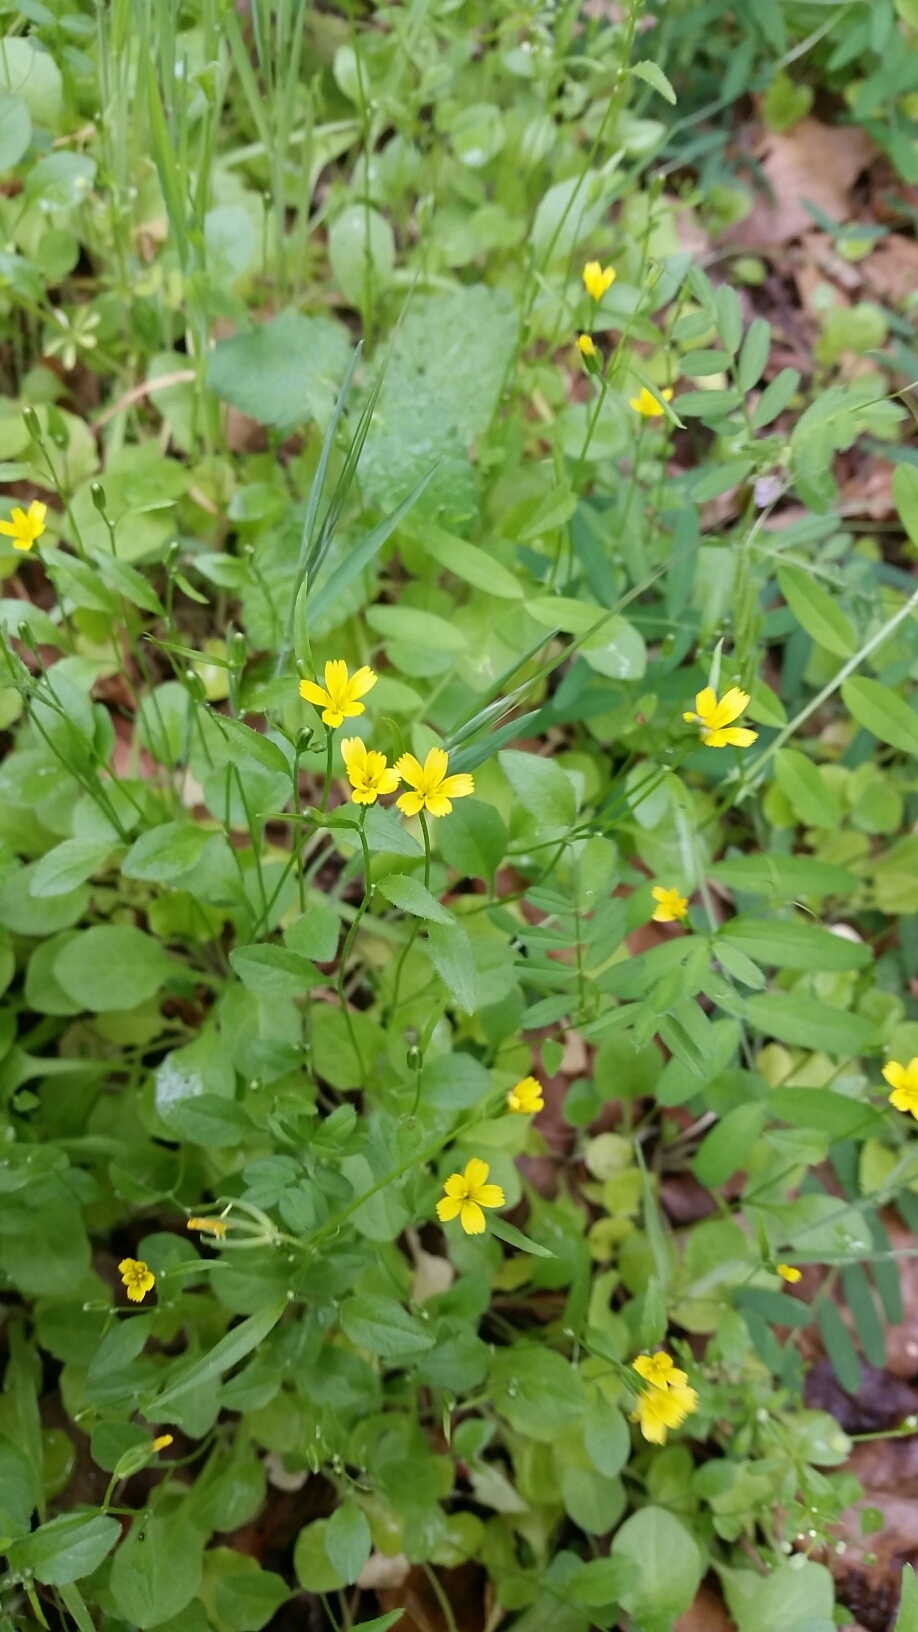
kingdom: Plantae
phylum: Tracheophyta
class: Magnoliopsida
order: Asterales
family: Asteraceae
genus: Rhagadiolus
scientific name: Rhagadiolus stellatus
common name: Star hawkbit
